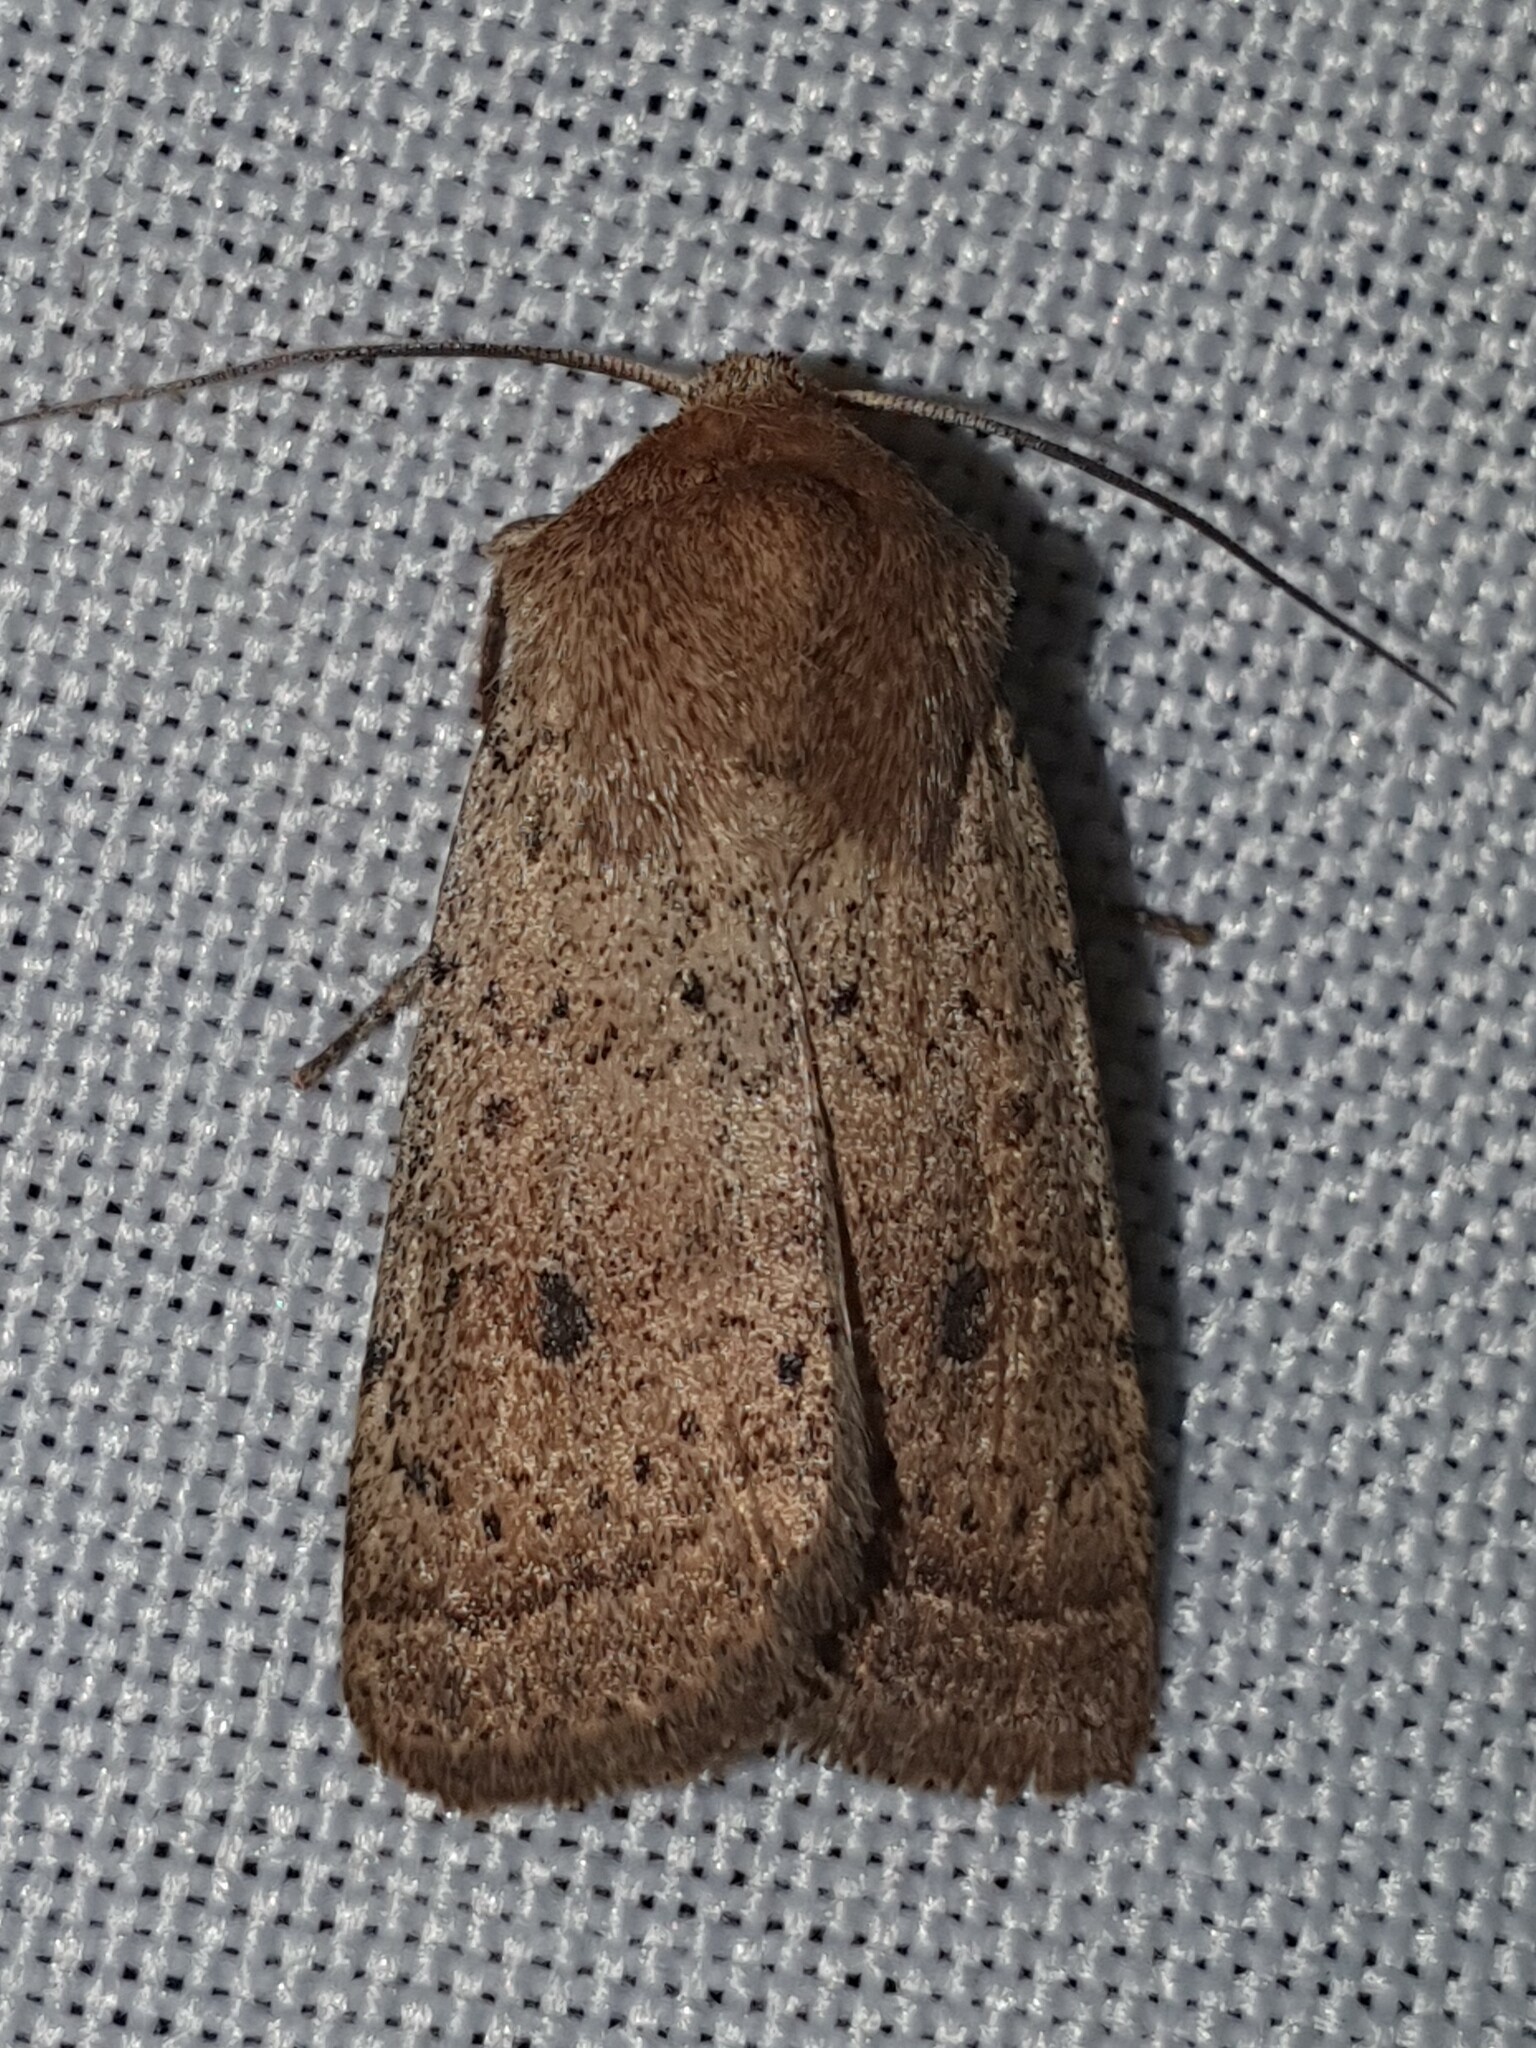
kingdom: Animalia
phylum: Arthropoda
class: Insecta
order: Lepidoptera
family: Noctuidae
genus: Hoplodrina
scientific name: Hoplodrina superstes
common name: Powdered rustic
